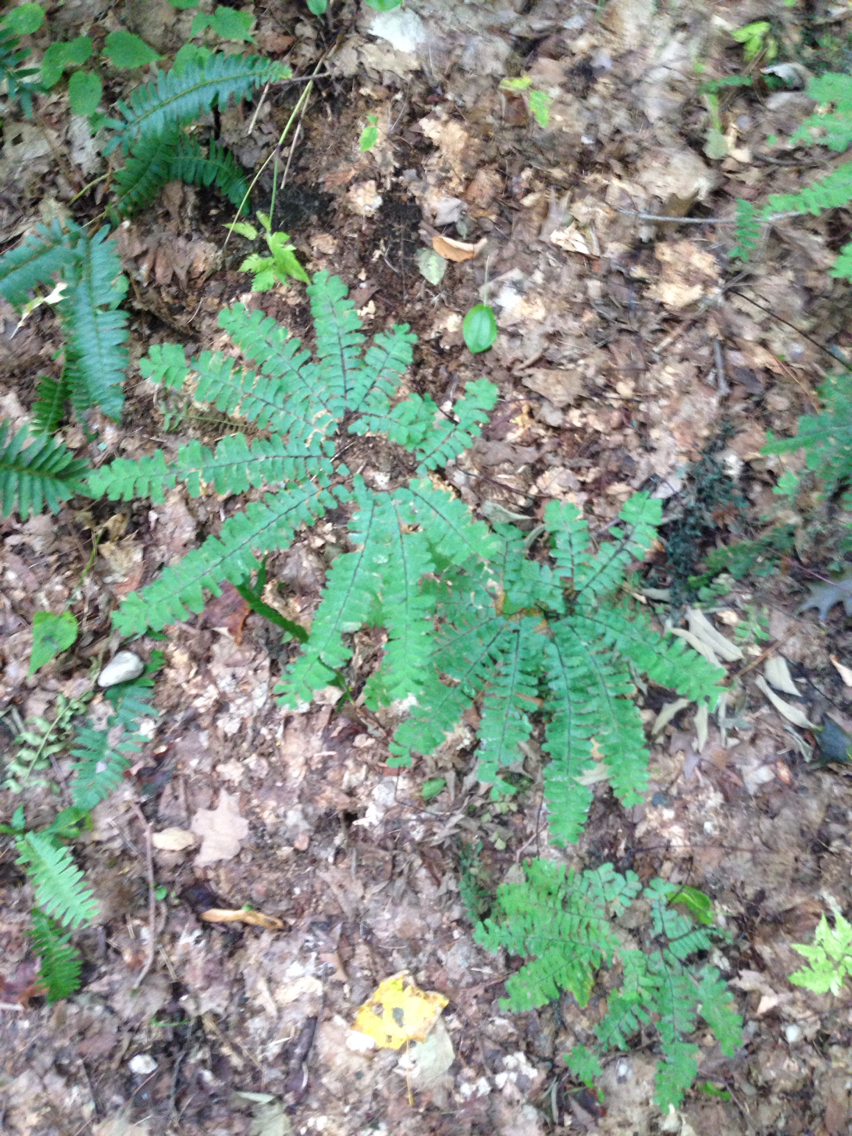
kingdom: Plantae
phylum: Tracheophyta
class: Polypodiopsida
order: Polypodiales
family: Pteridaceae
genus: Adiantum
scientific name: Adiantum pedatum
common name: Five-finger fern
